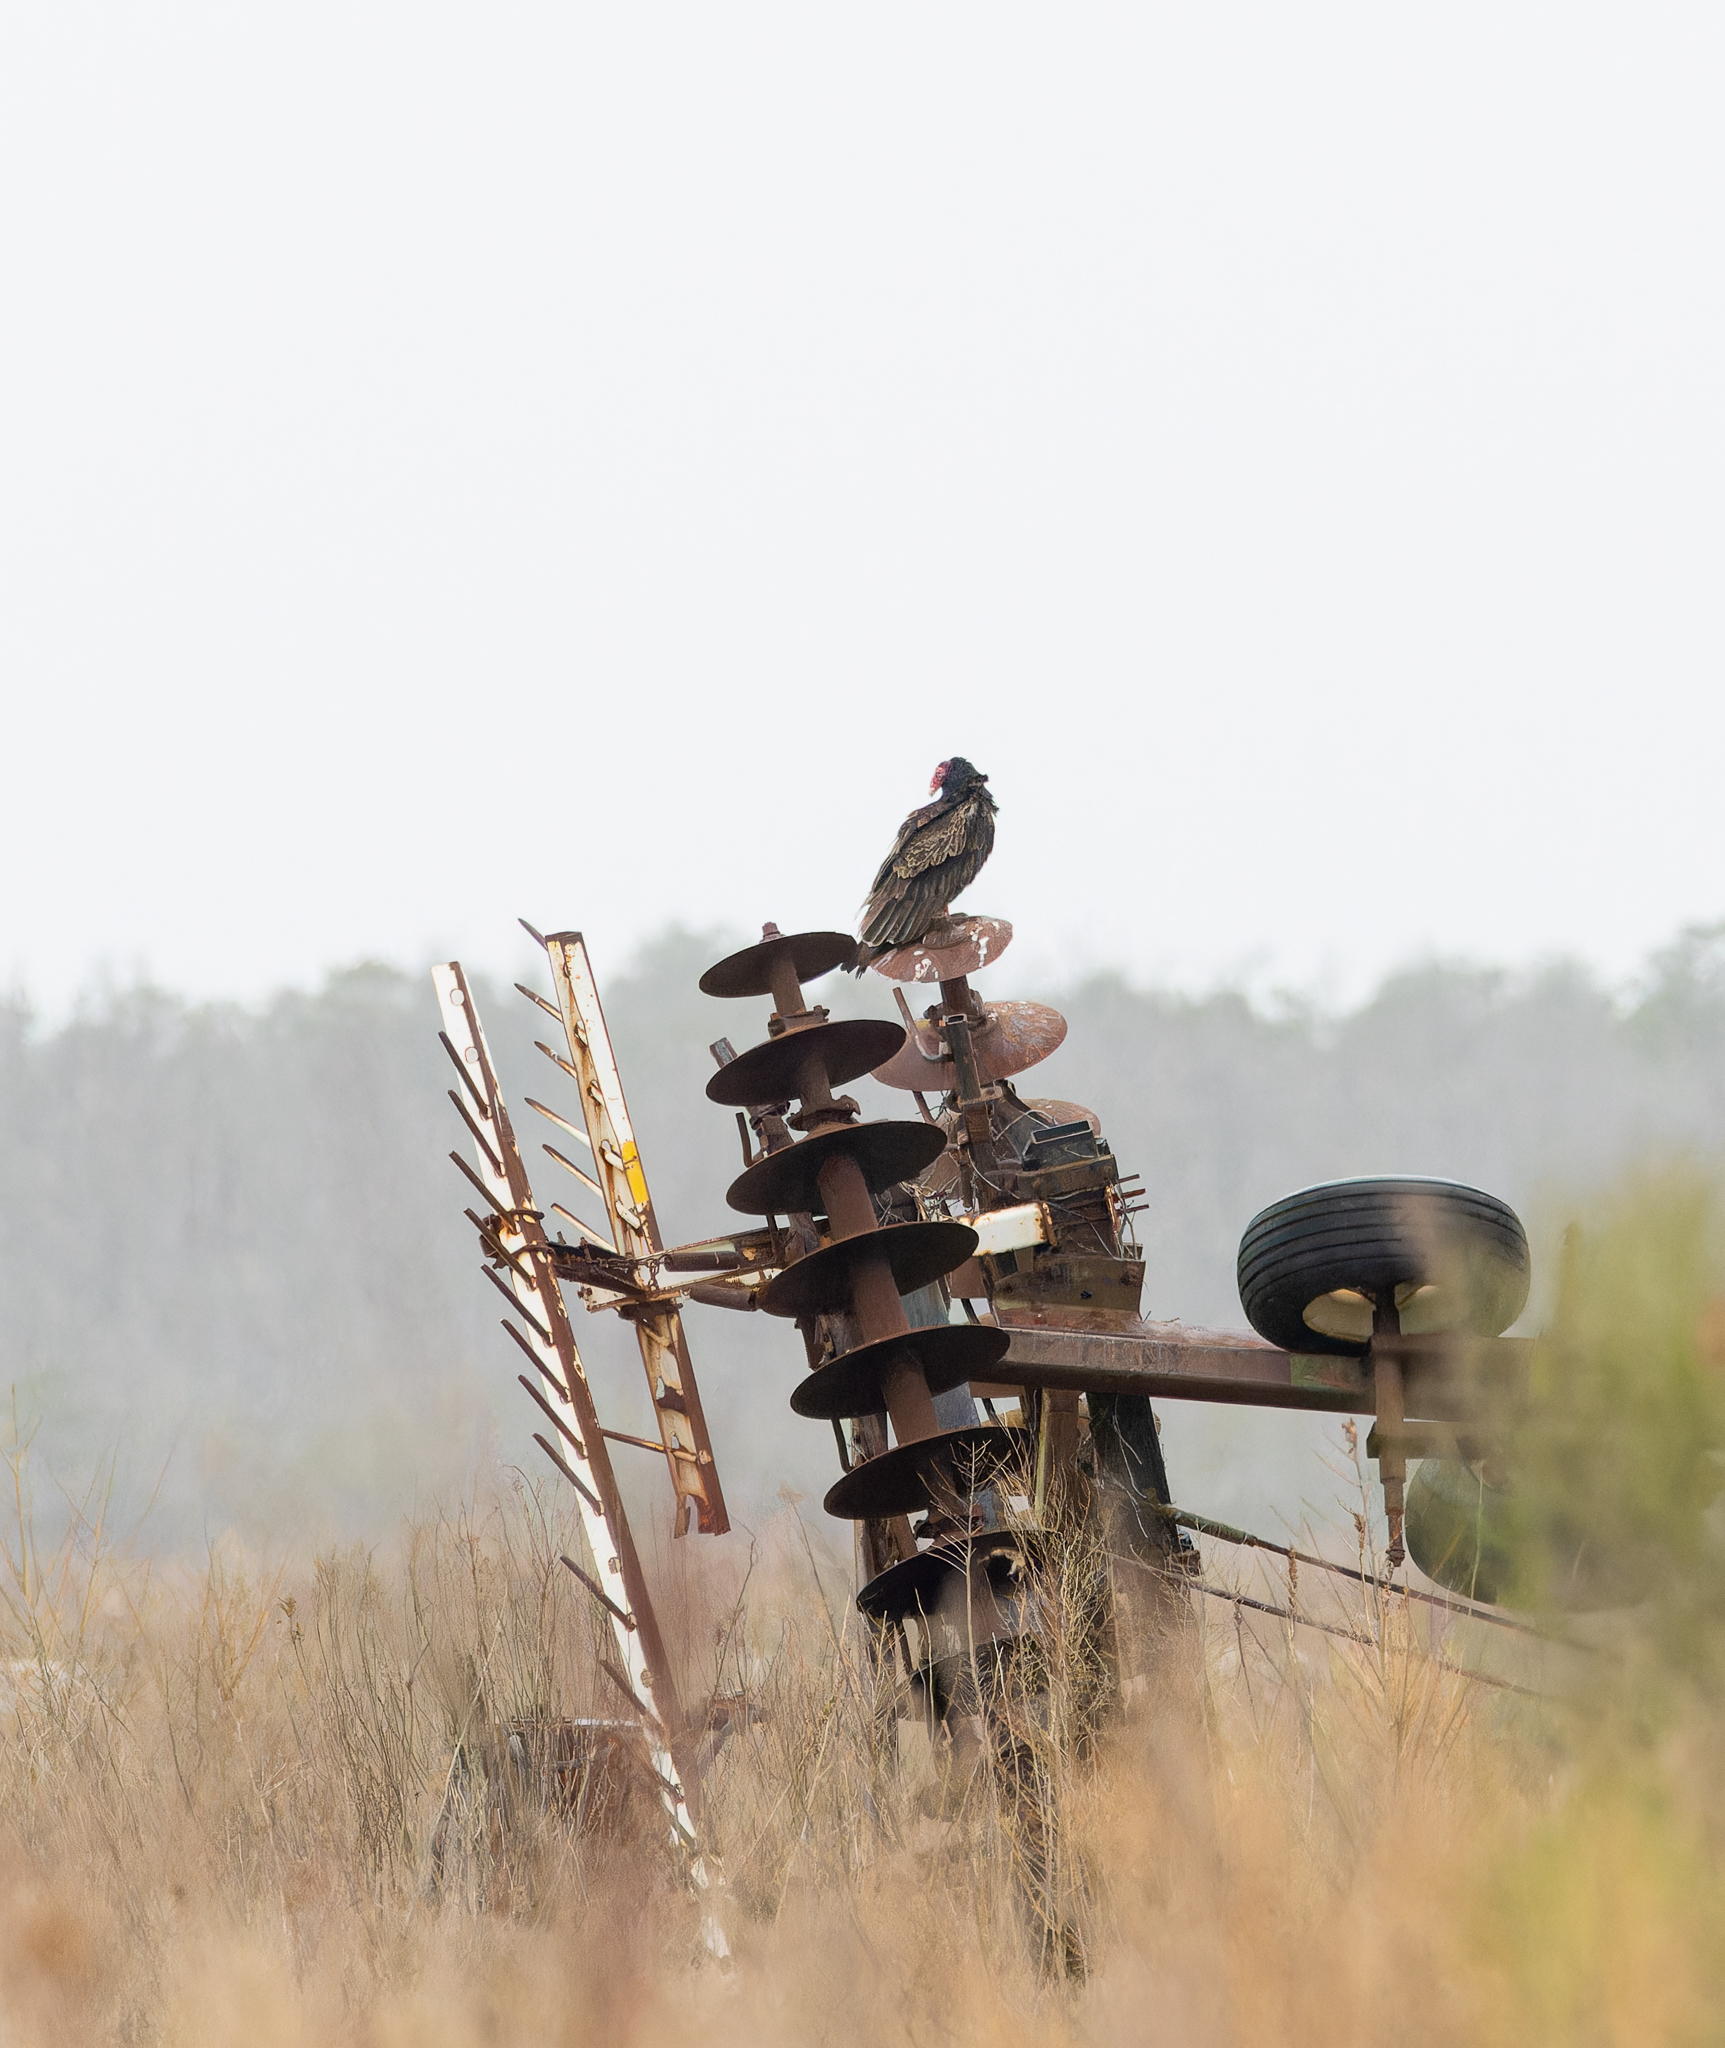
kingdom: Animalia
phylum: Chordata
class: Aves
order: Accipitriformes
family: Cathartidae
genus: Cathartes
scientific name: Cathartes aura
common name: Turkey vulture
